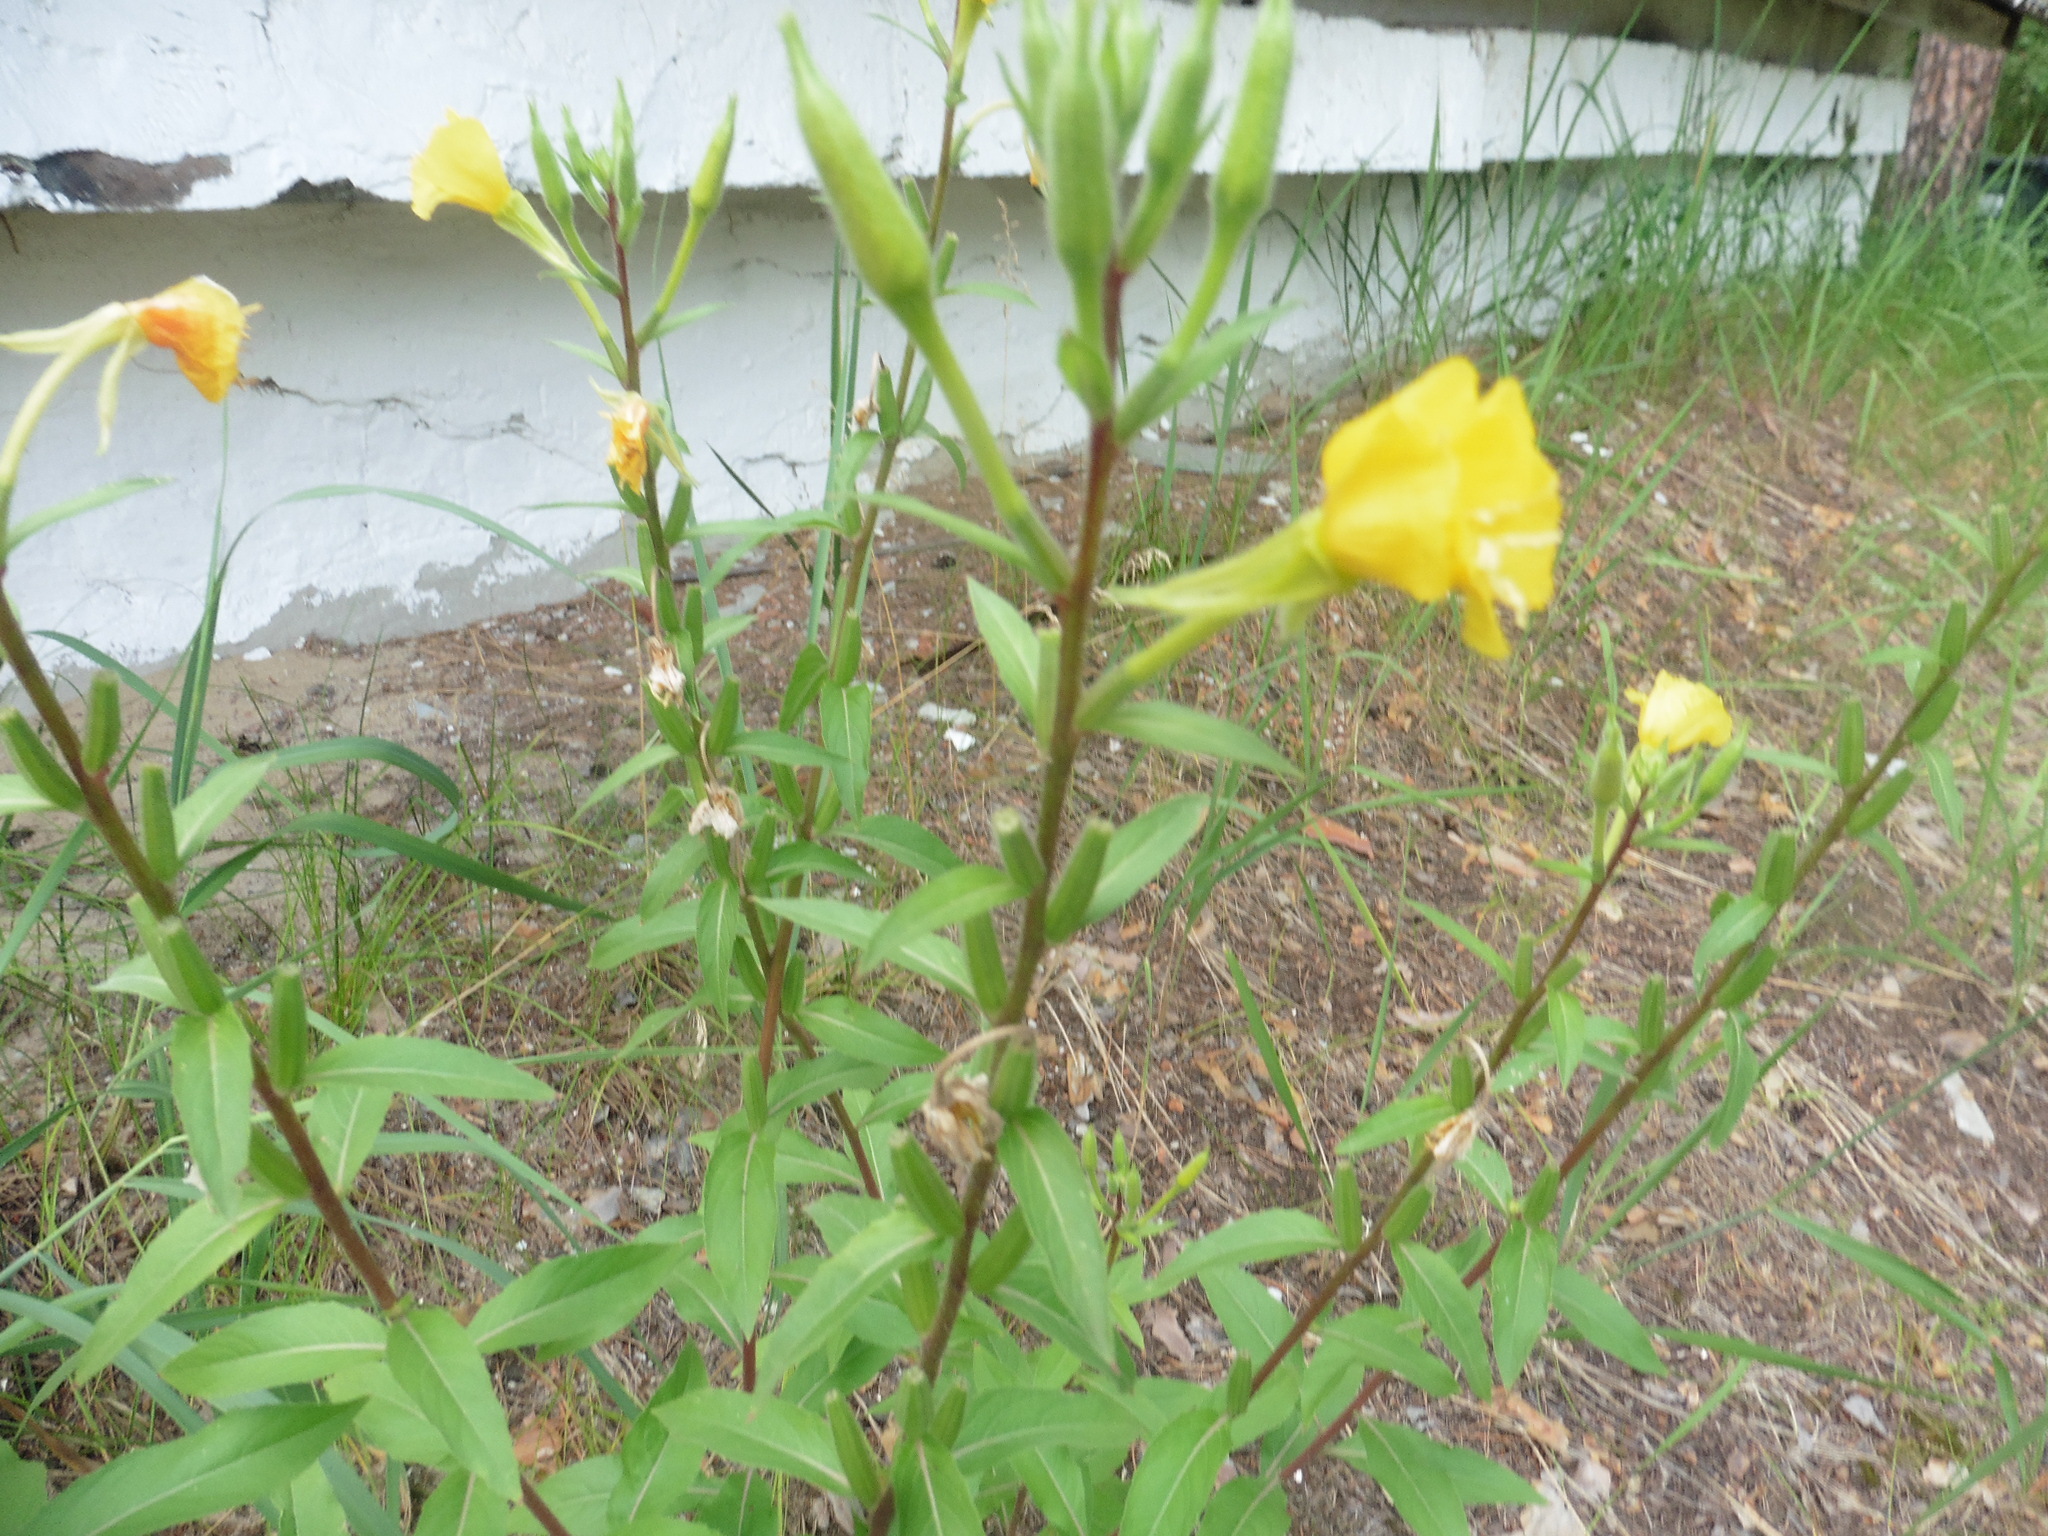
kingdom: Plantae
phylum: Tracheophyta
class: Magnoliopsida
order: Myrtales
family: Onagraceae
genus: Oenothera
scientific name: Oenothera rubricaulis
